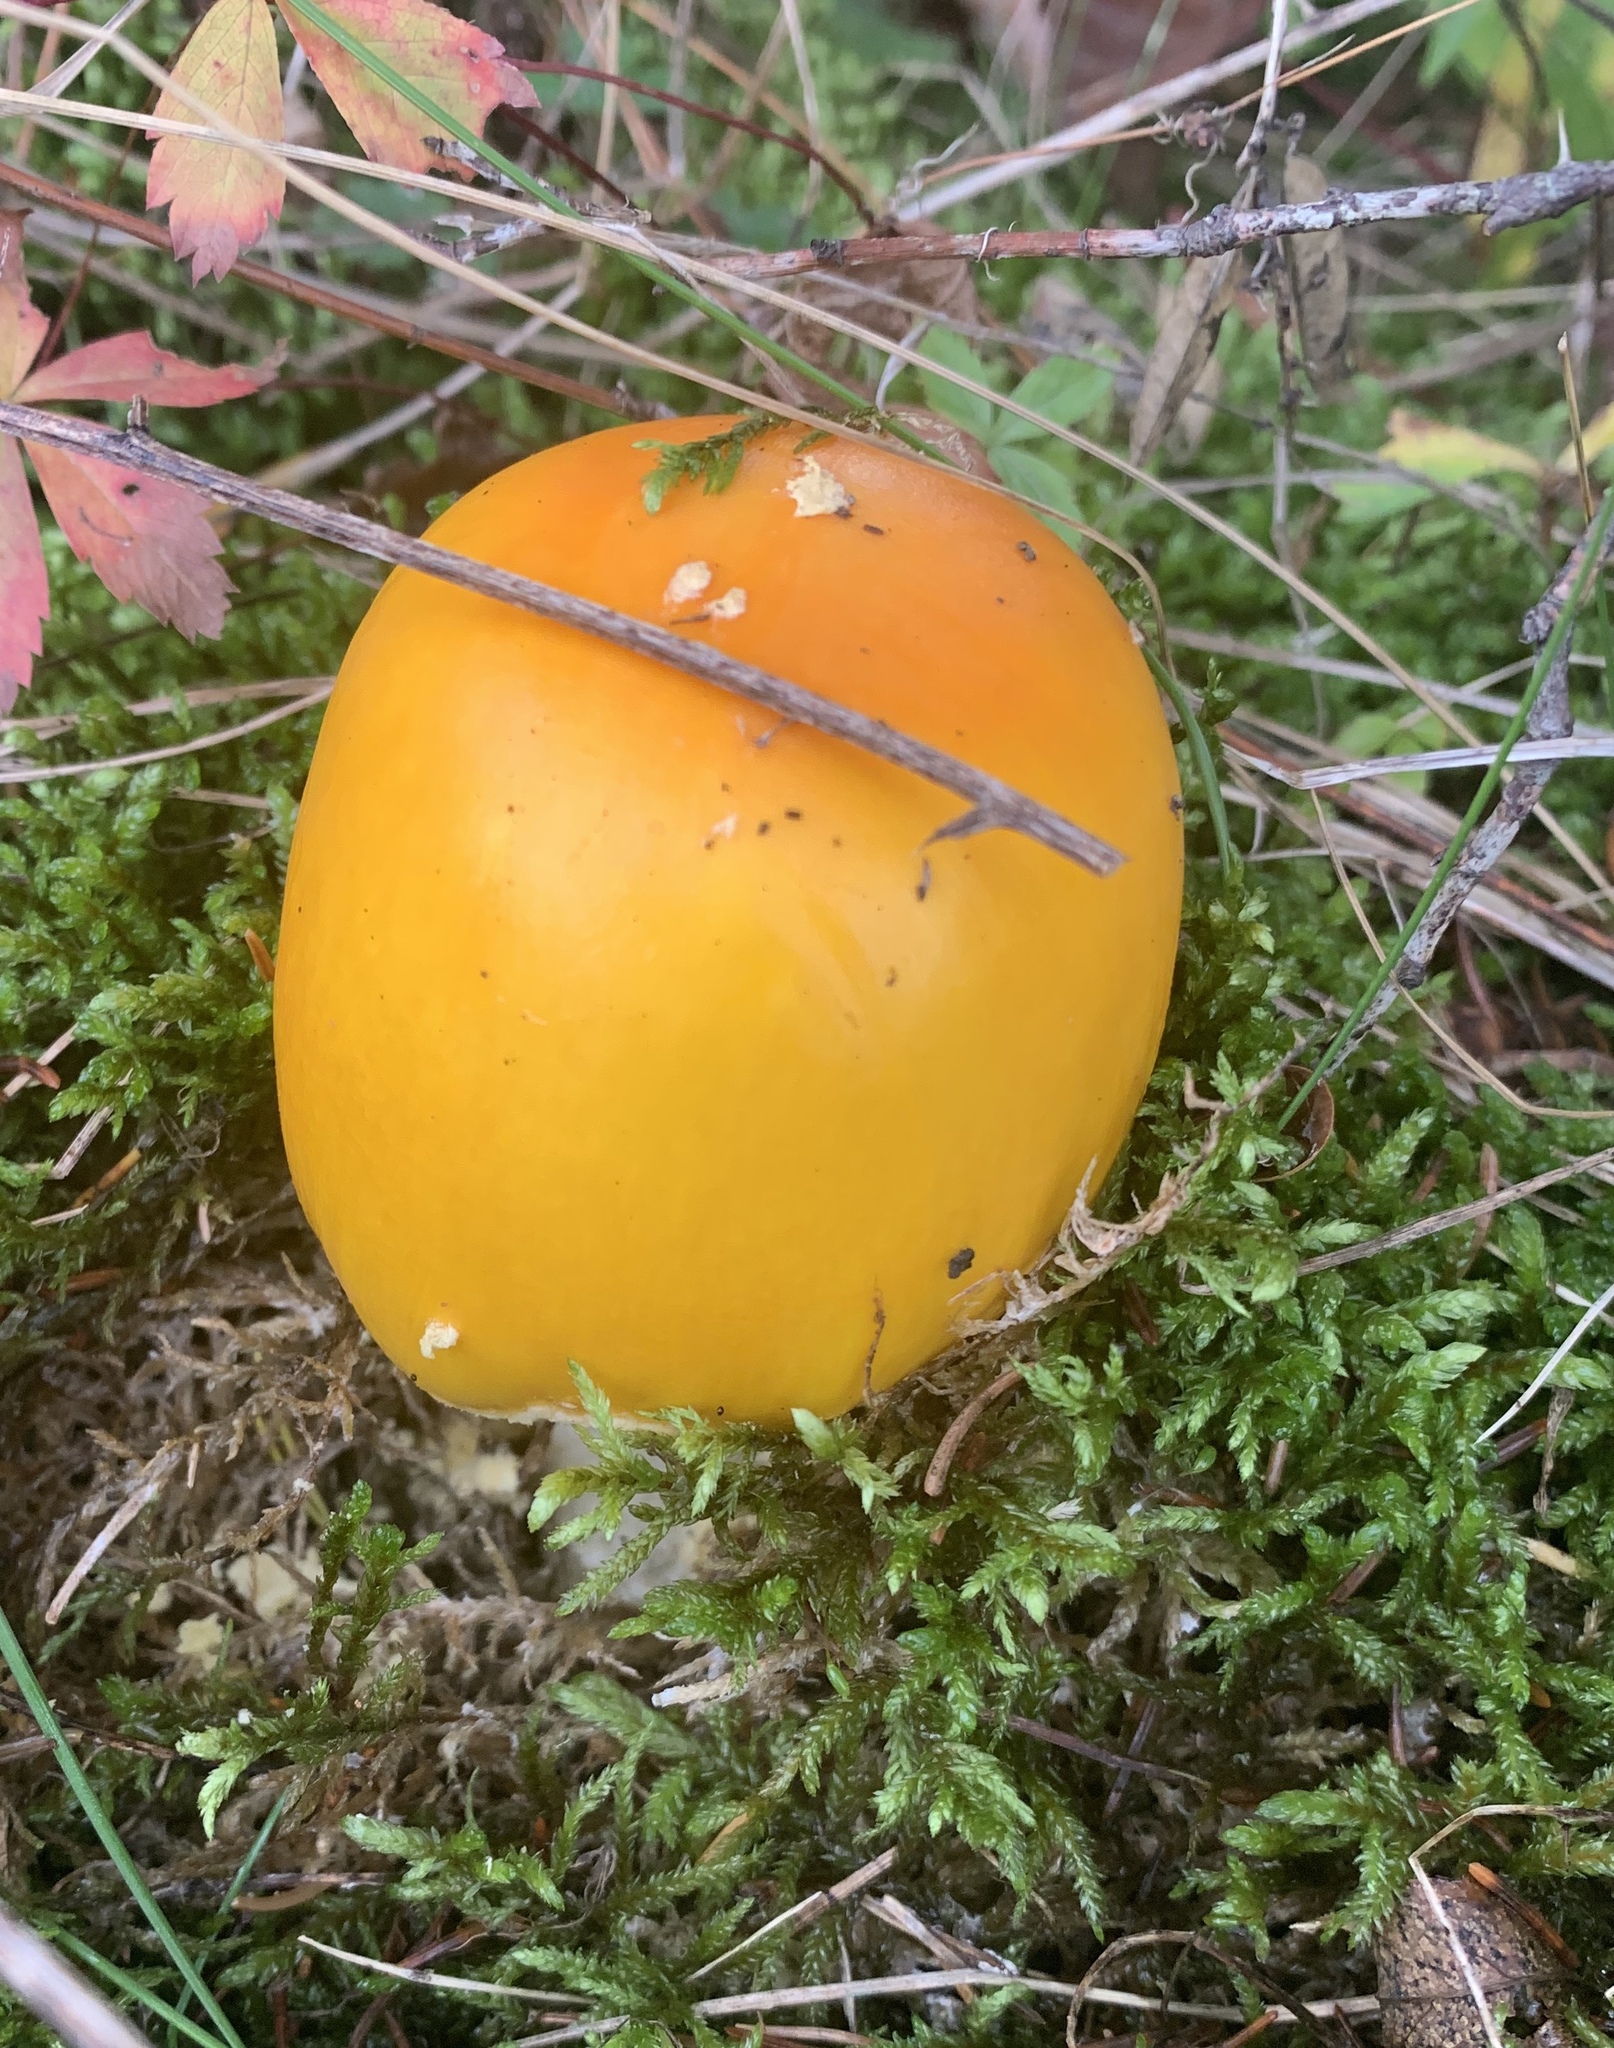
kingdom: Fungi
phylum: Basidiomycota
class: Agaricomycetes
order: Agaricales
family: Amanitaceae
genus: Amanita
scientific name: Amanita muscaria
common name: Fly agaric
